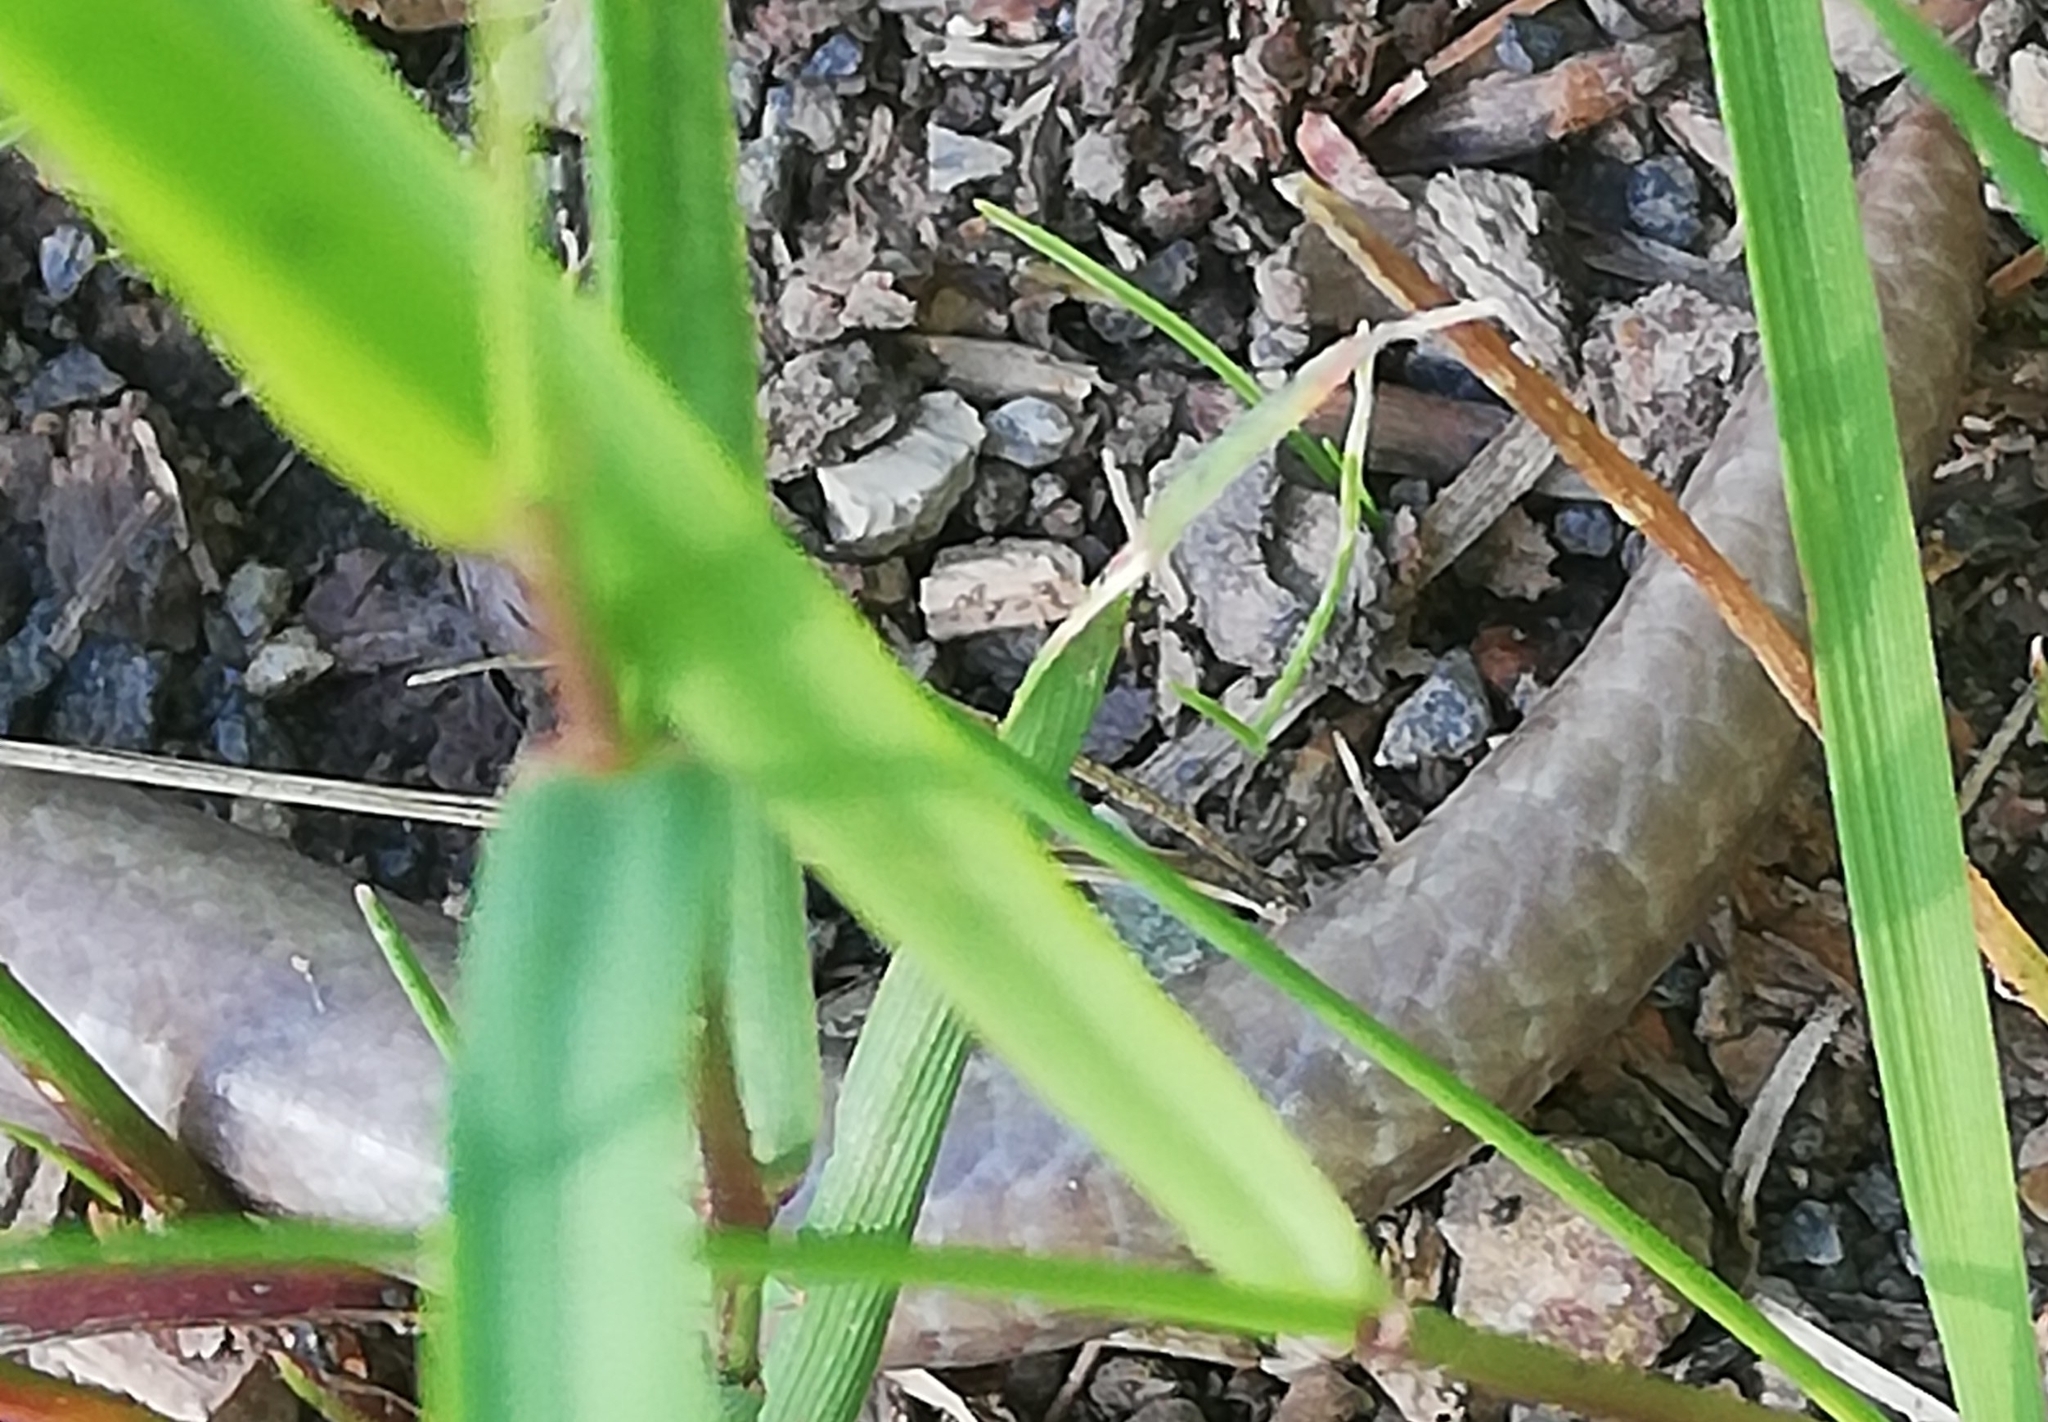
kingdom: Animalia
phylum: Chordata
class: Squamata
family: Anguidae
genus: Anguis
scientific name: Anguis fragilis
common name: Slow worm
